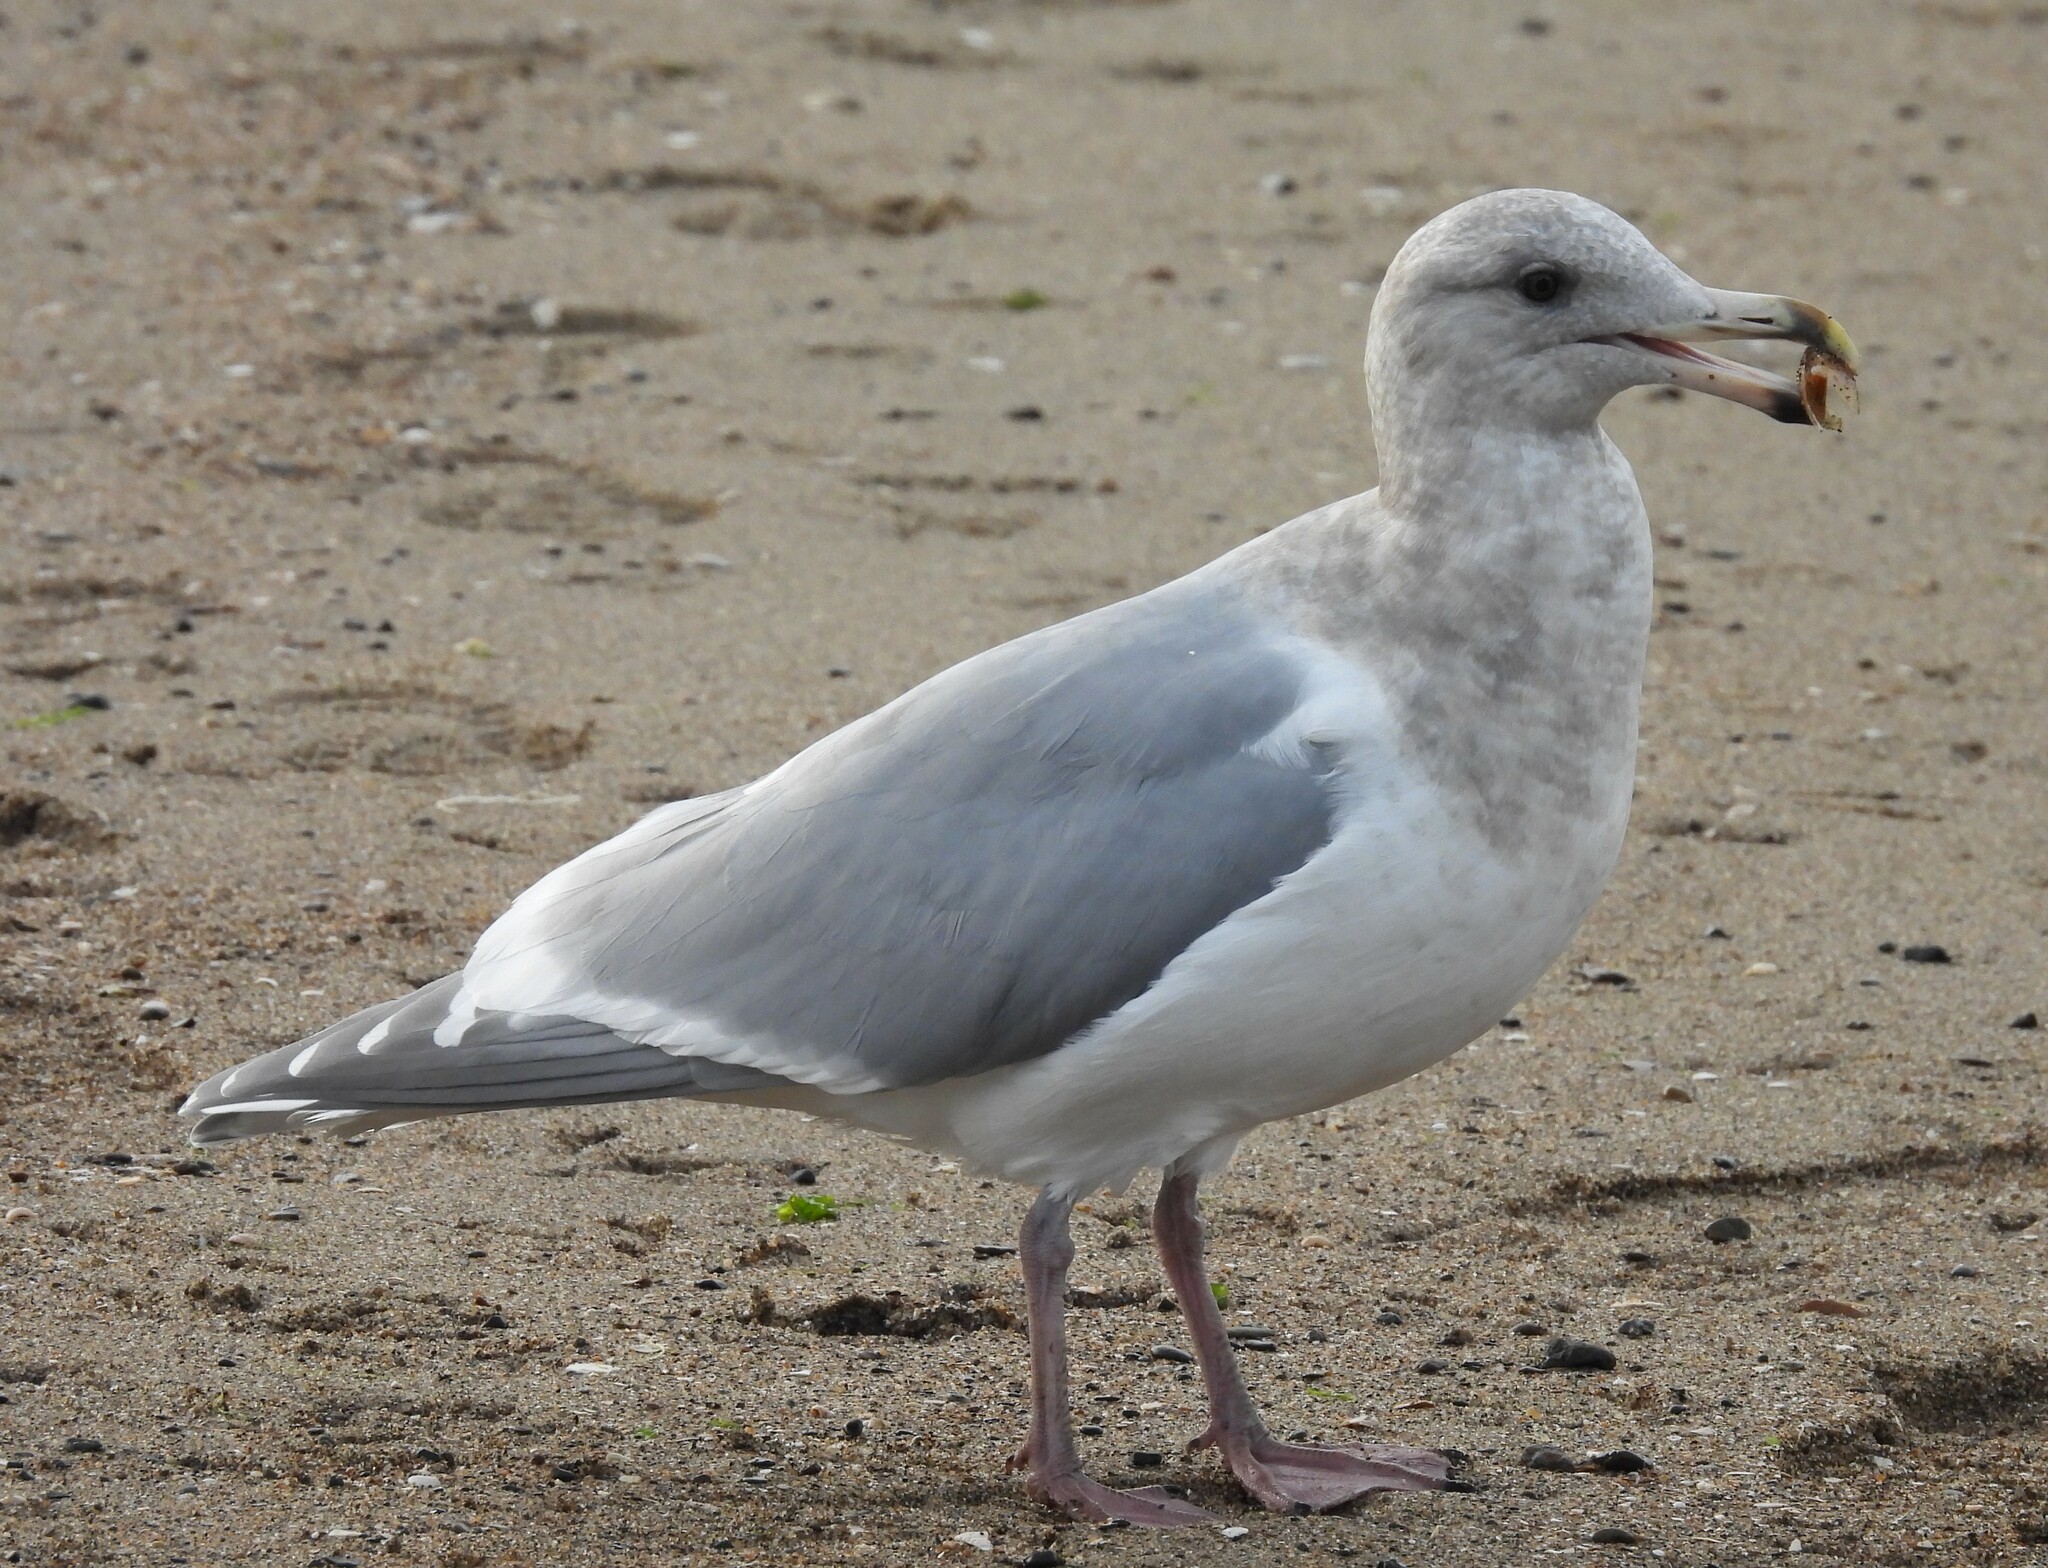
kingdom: Animalia
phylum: Chordata
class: Aves
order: Charadriiformes
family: Laridae
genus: Larus
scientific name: Larus glaucescens
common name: Glaucous-winged gull
